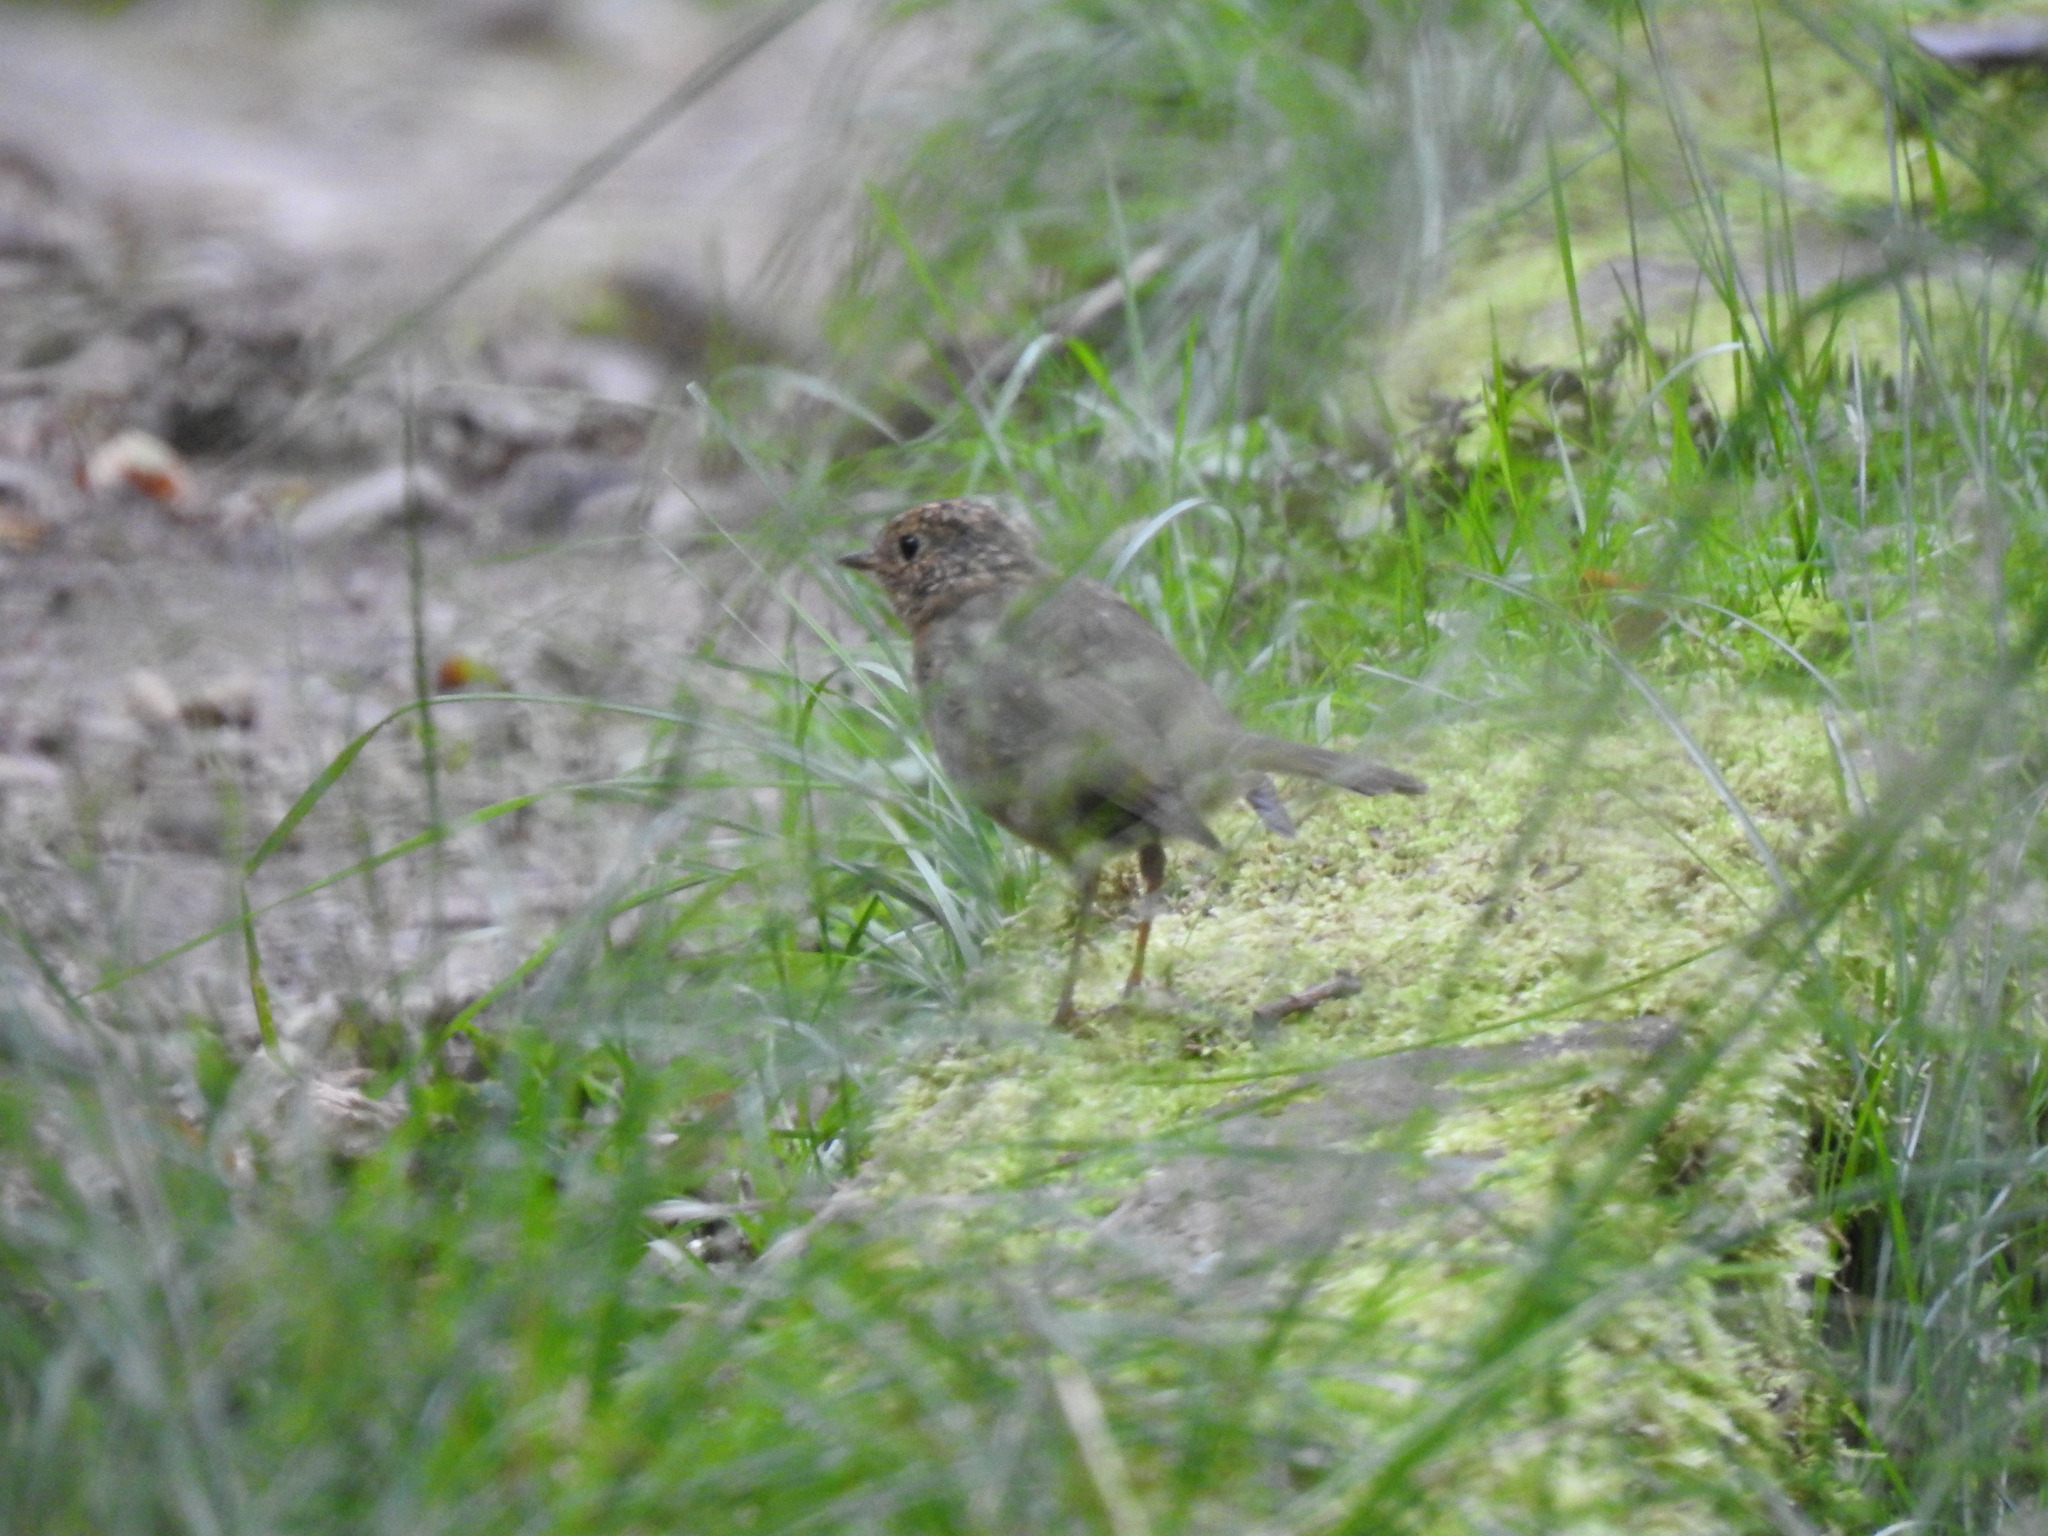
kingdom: Animalia
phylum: Chordata
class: Aves
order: Passeriformes
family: Muscicapidae
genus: Erithacus
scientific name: Erithacus rubecula
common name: European robin
